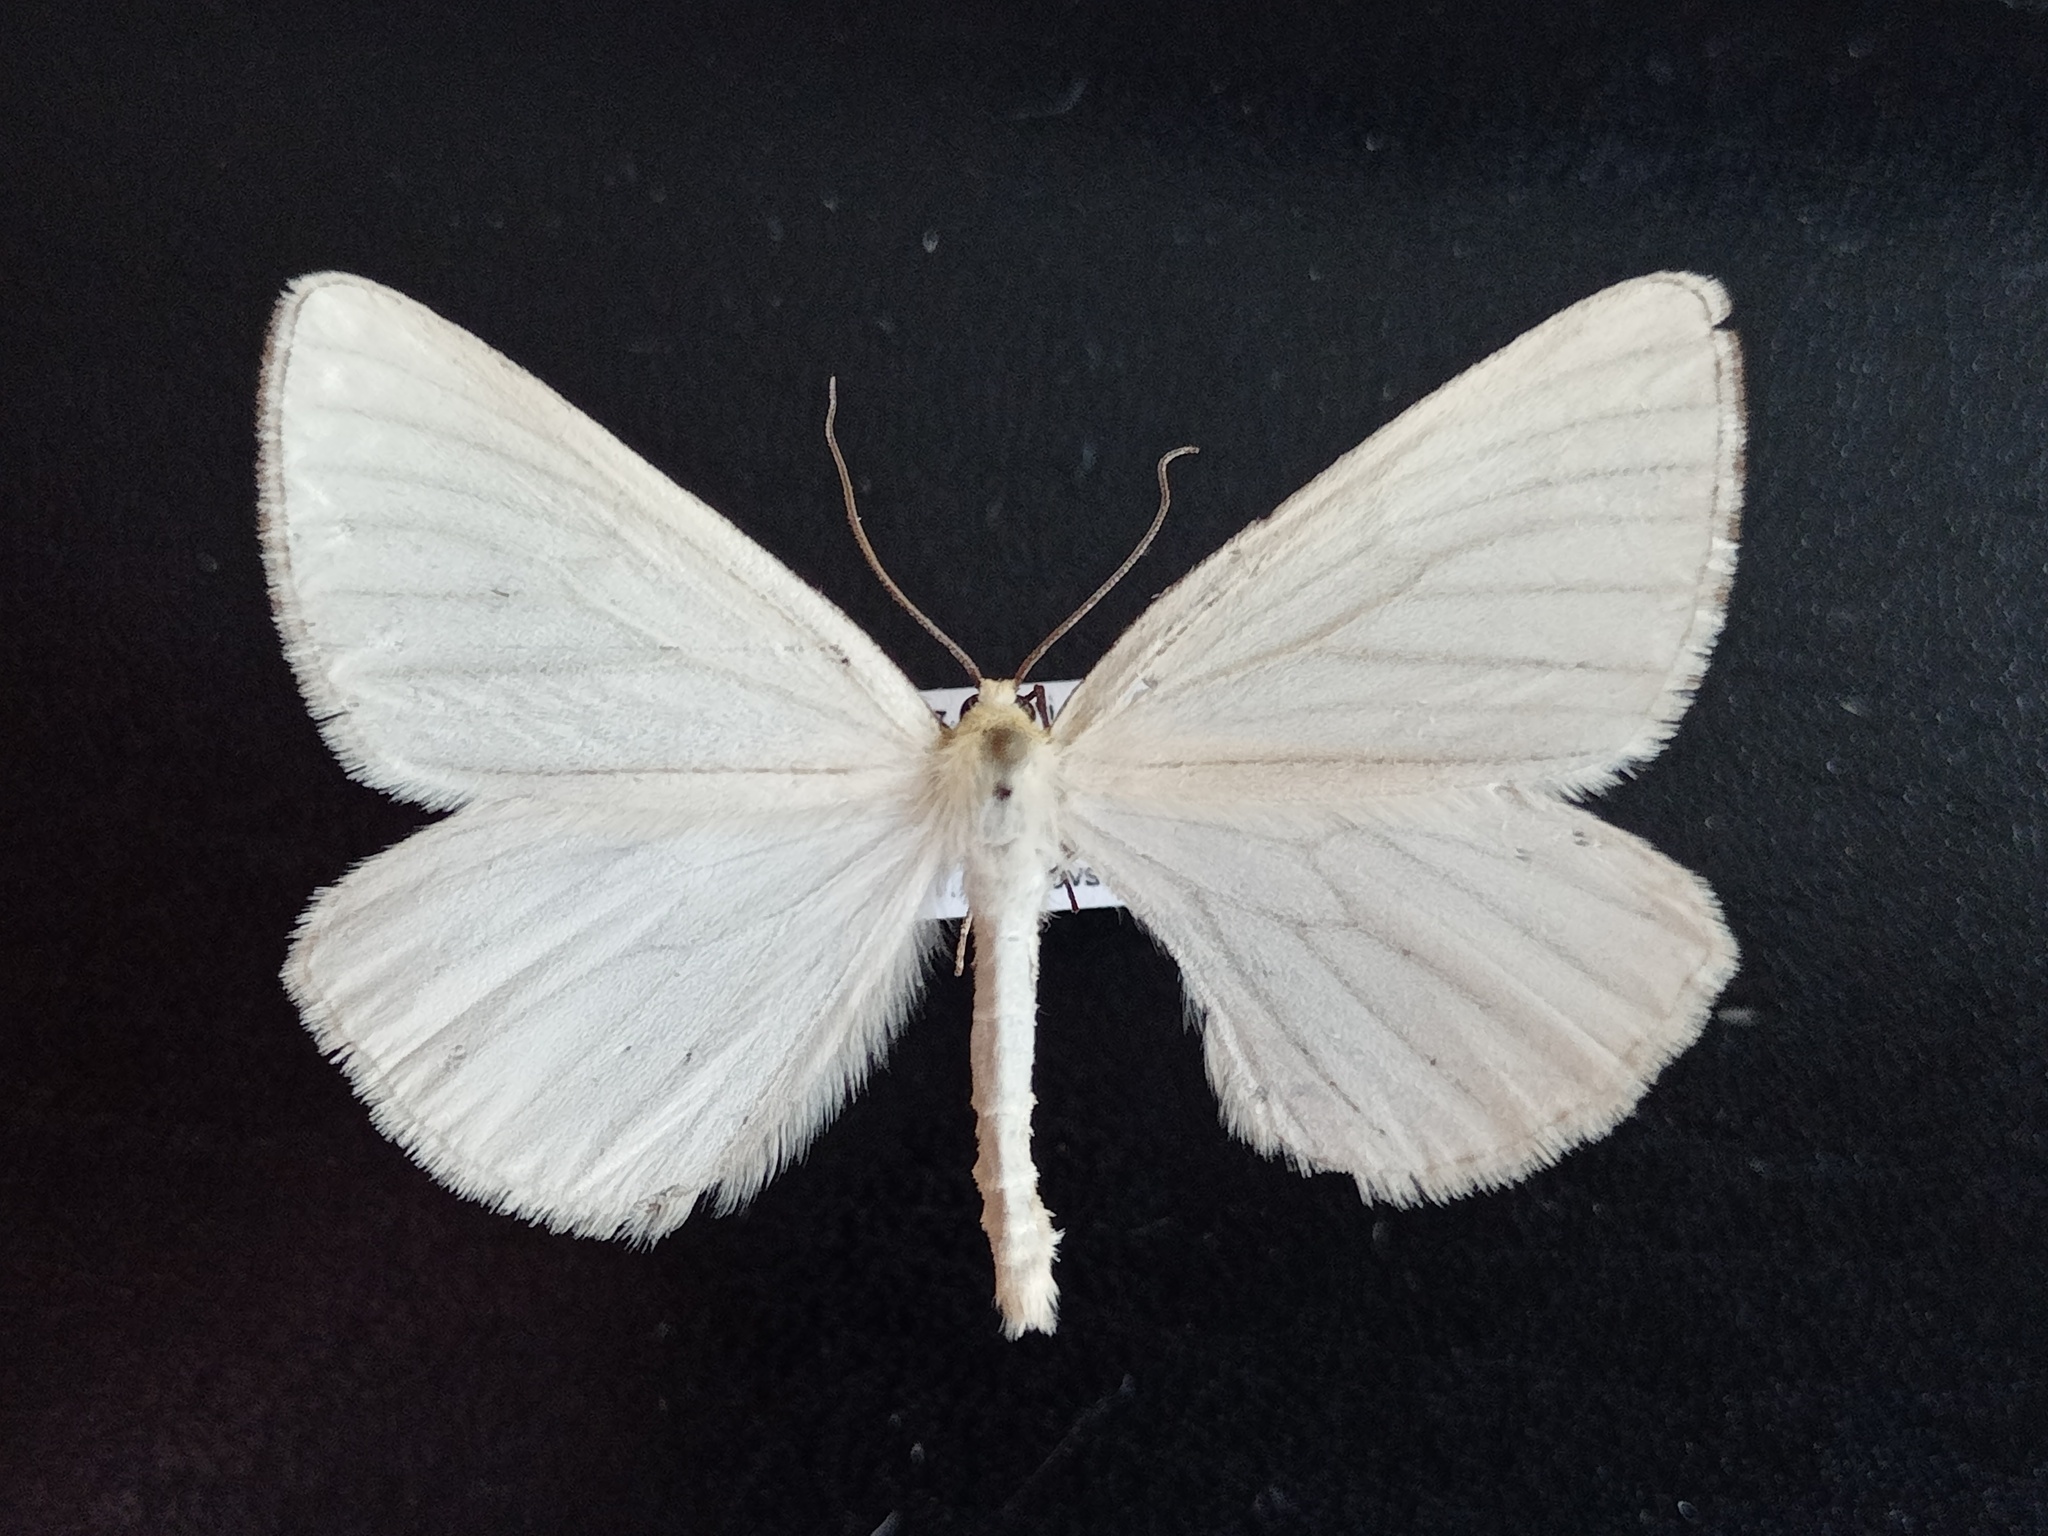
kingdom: Animalia
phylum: Arthropoda
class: Insecta
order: Lepidoptera
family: Geometridae
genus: Siona
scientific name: Siona lineata
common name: Black-veined moth
